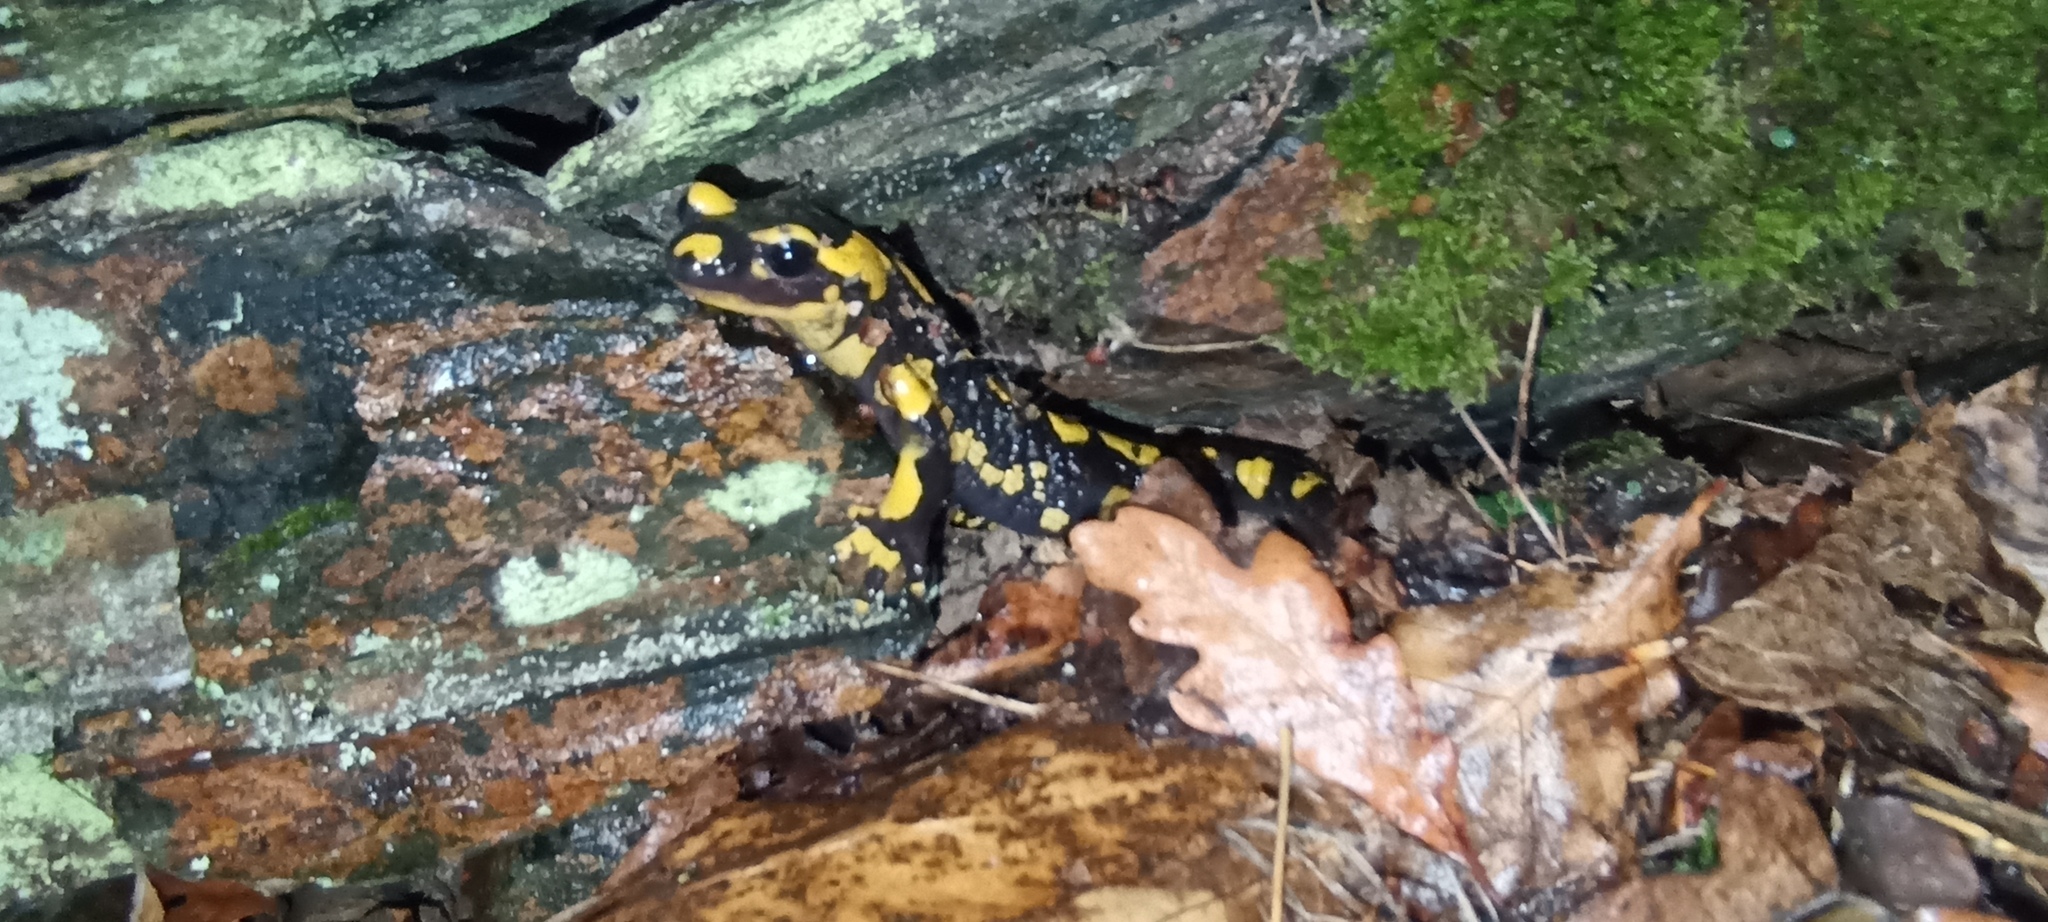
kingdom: Animalia
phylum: Chordata
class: Amphibia
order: Caudata
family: Salamandridae
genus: Salamandra
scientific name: Salamandra salamandra
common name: Fire salamander
